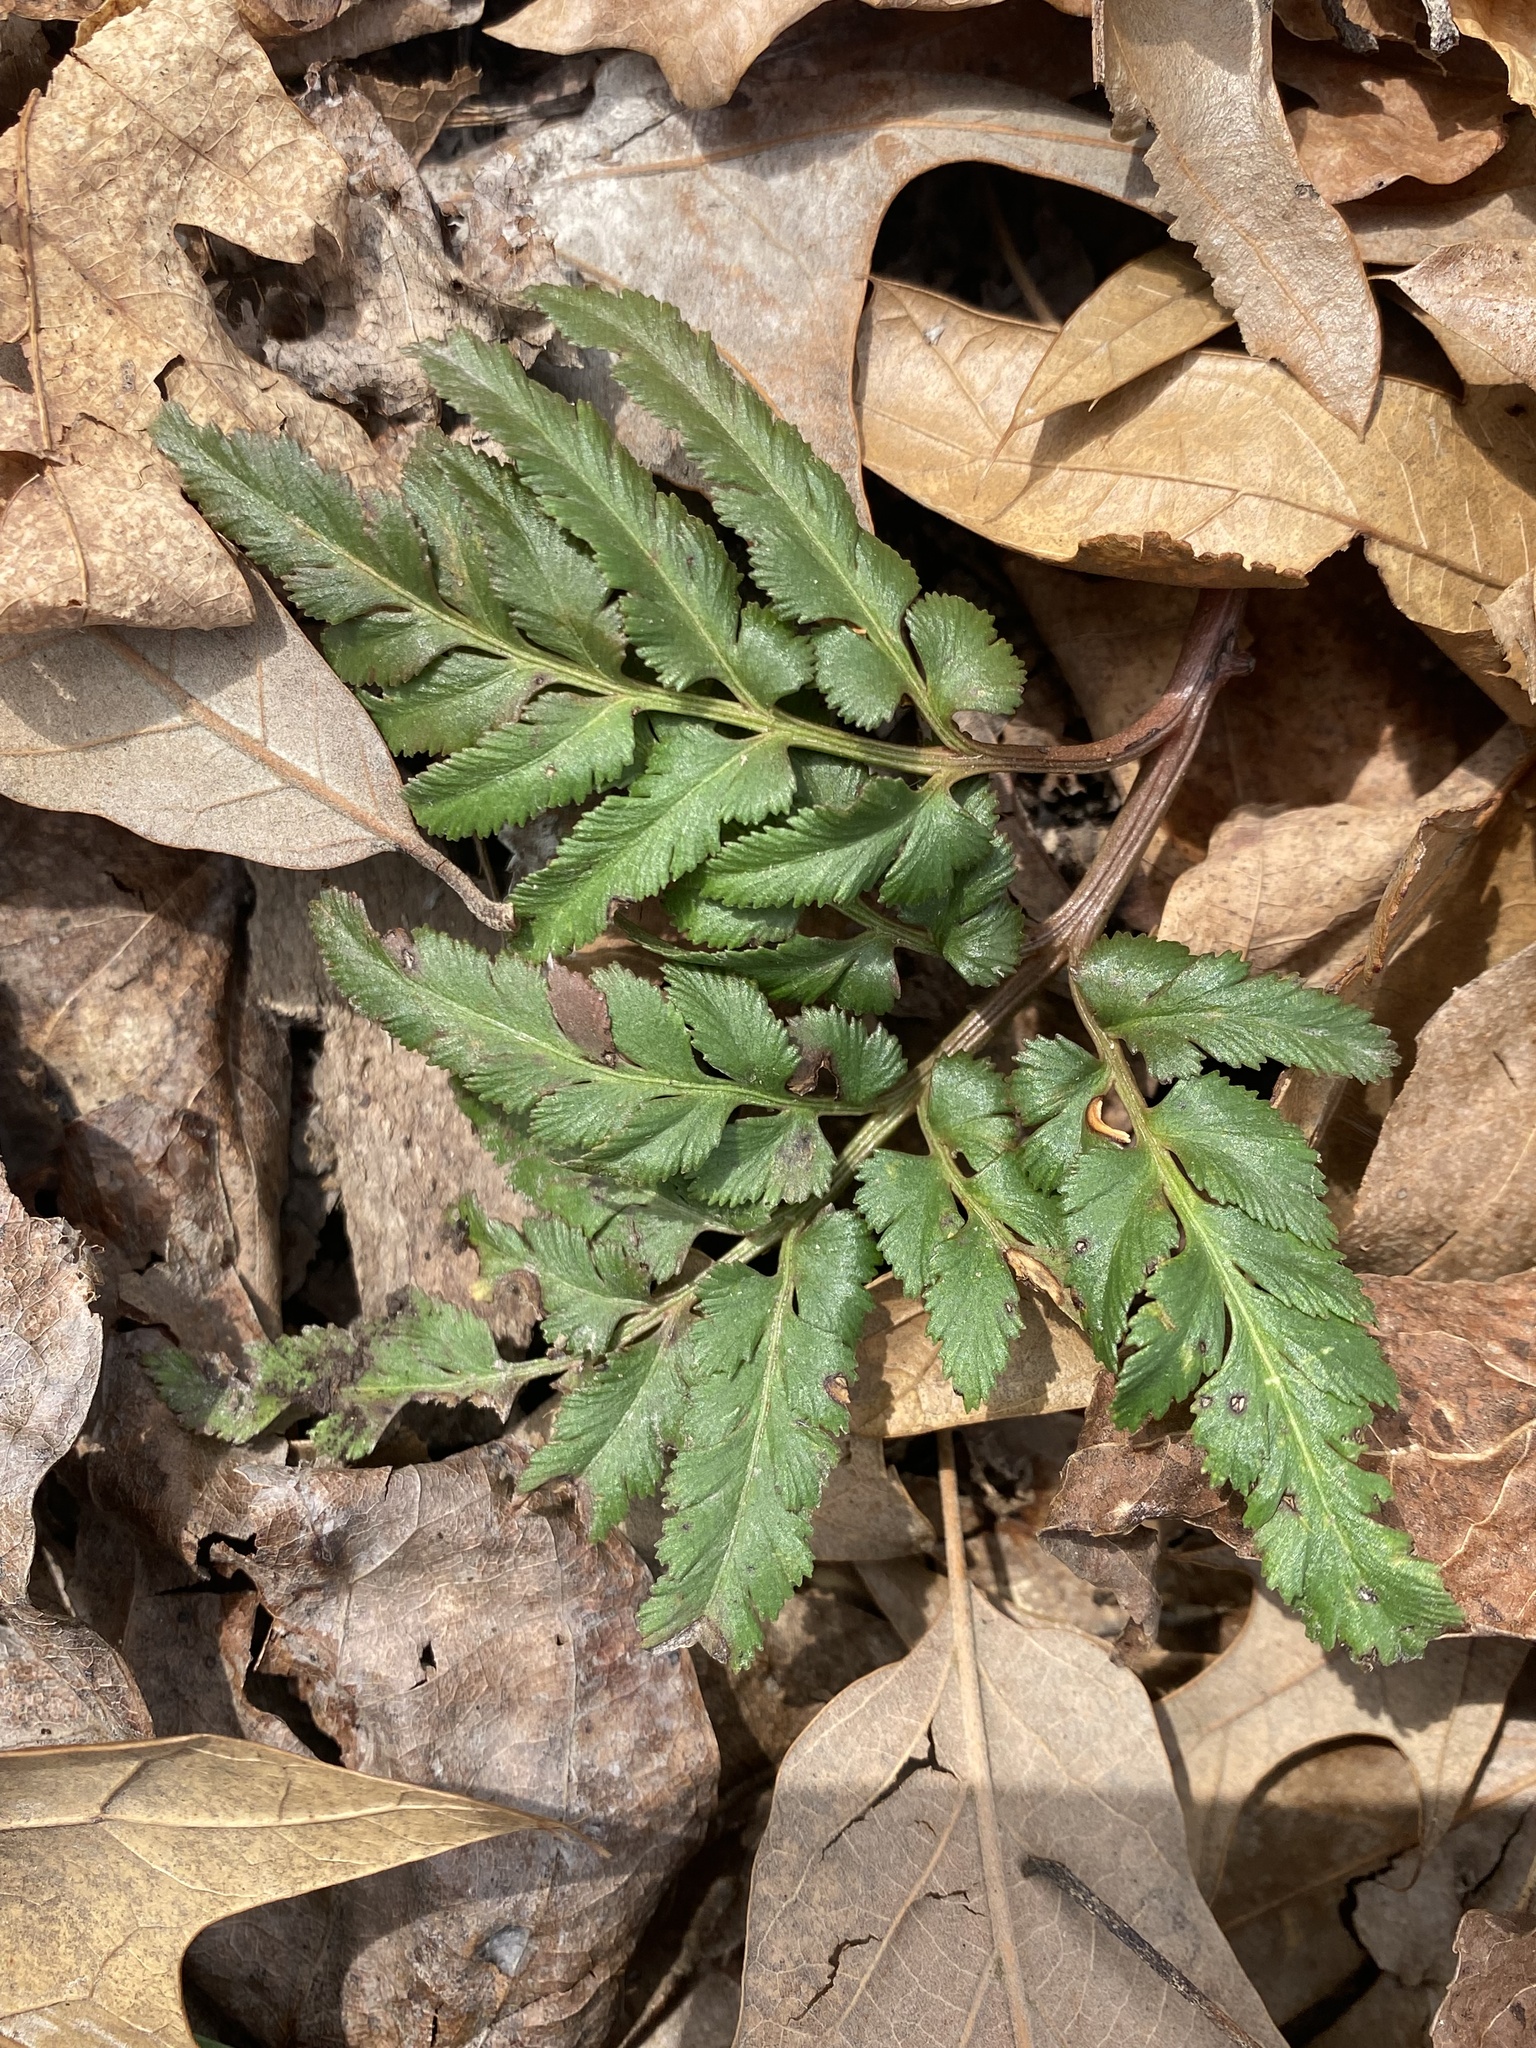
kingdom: Plantae
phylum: Tracheophyta
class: Polypodiopsida
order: Ophioglossales
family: Ophioglossaceae
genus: Sceptridium
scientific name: Sceptridium dissectum
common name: Cut-leaved grapefern
